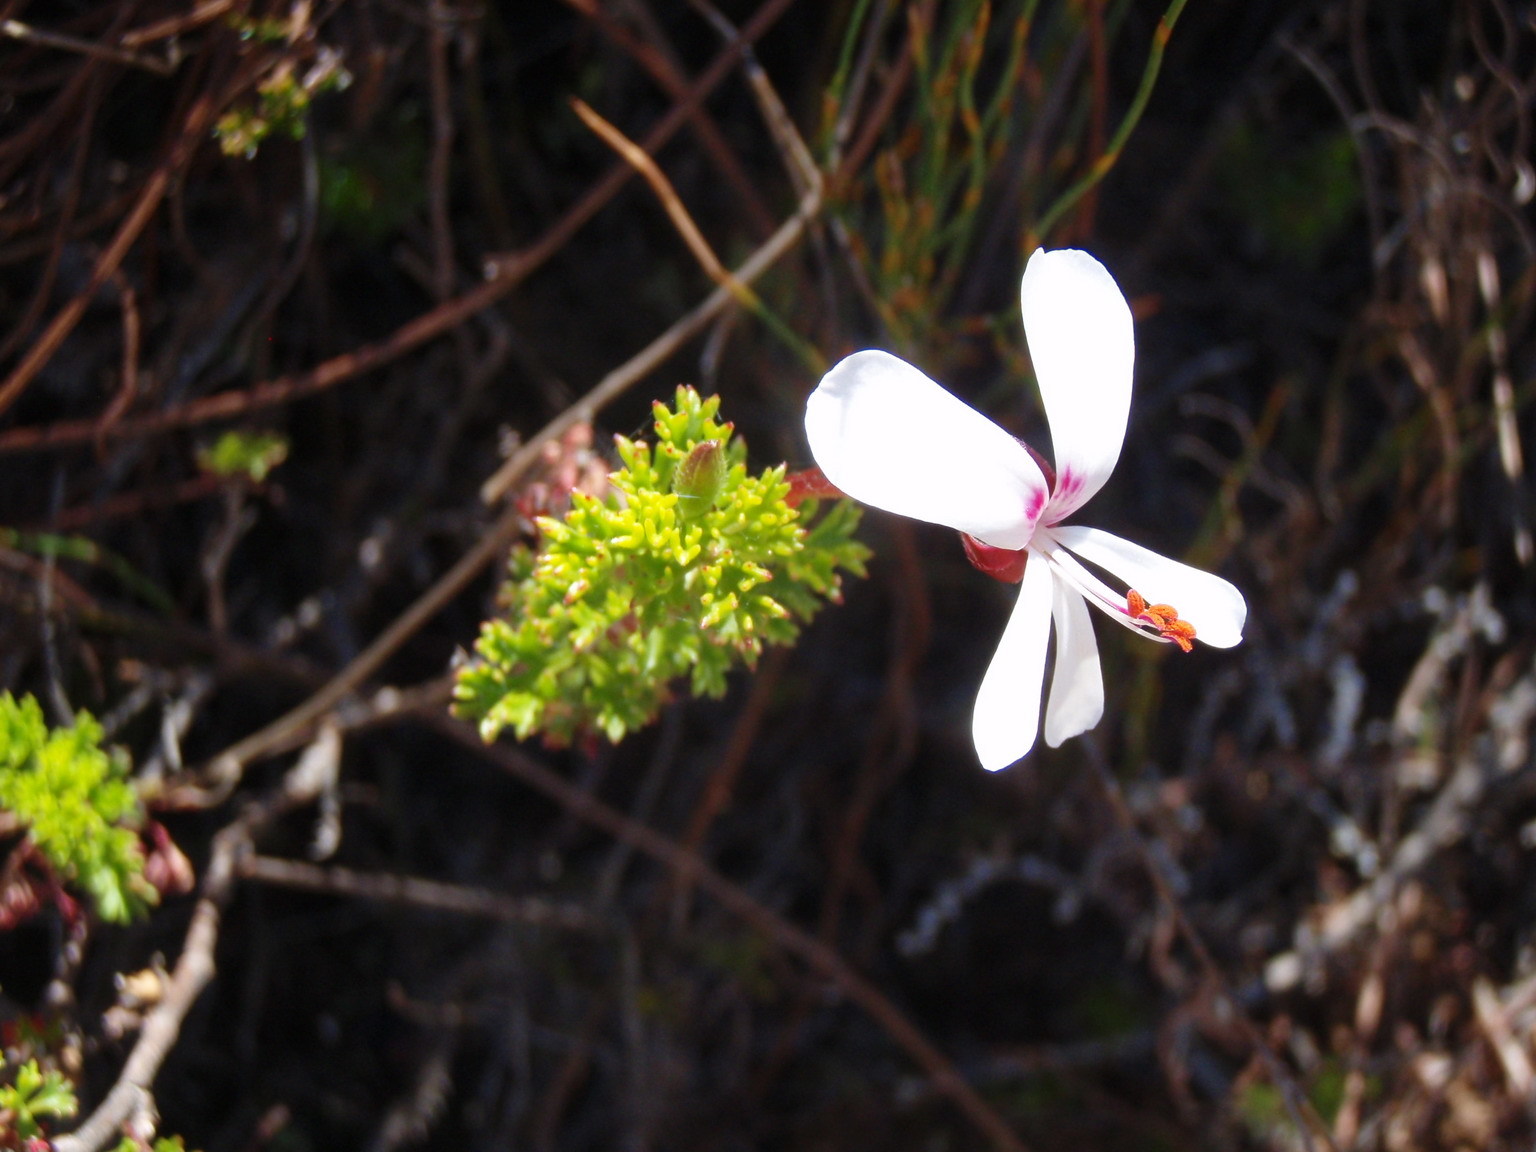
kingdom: Plantae
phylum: Tracheophyta
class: Magnoliopsida
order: Geraniales
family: Geraniaceae
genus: Pelargonium
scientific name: Pelargonium fruticosum
